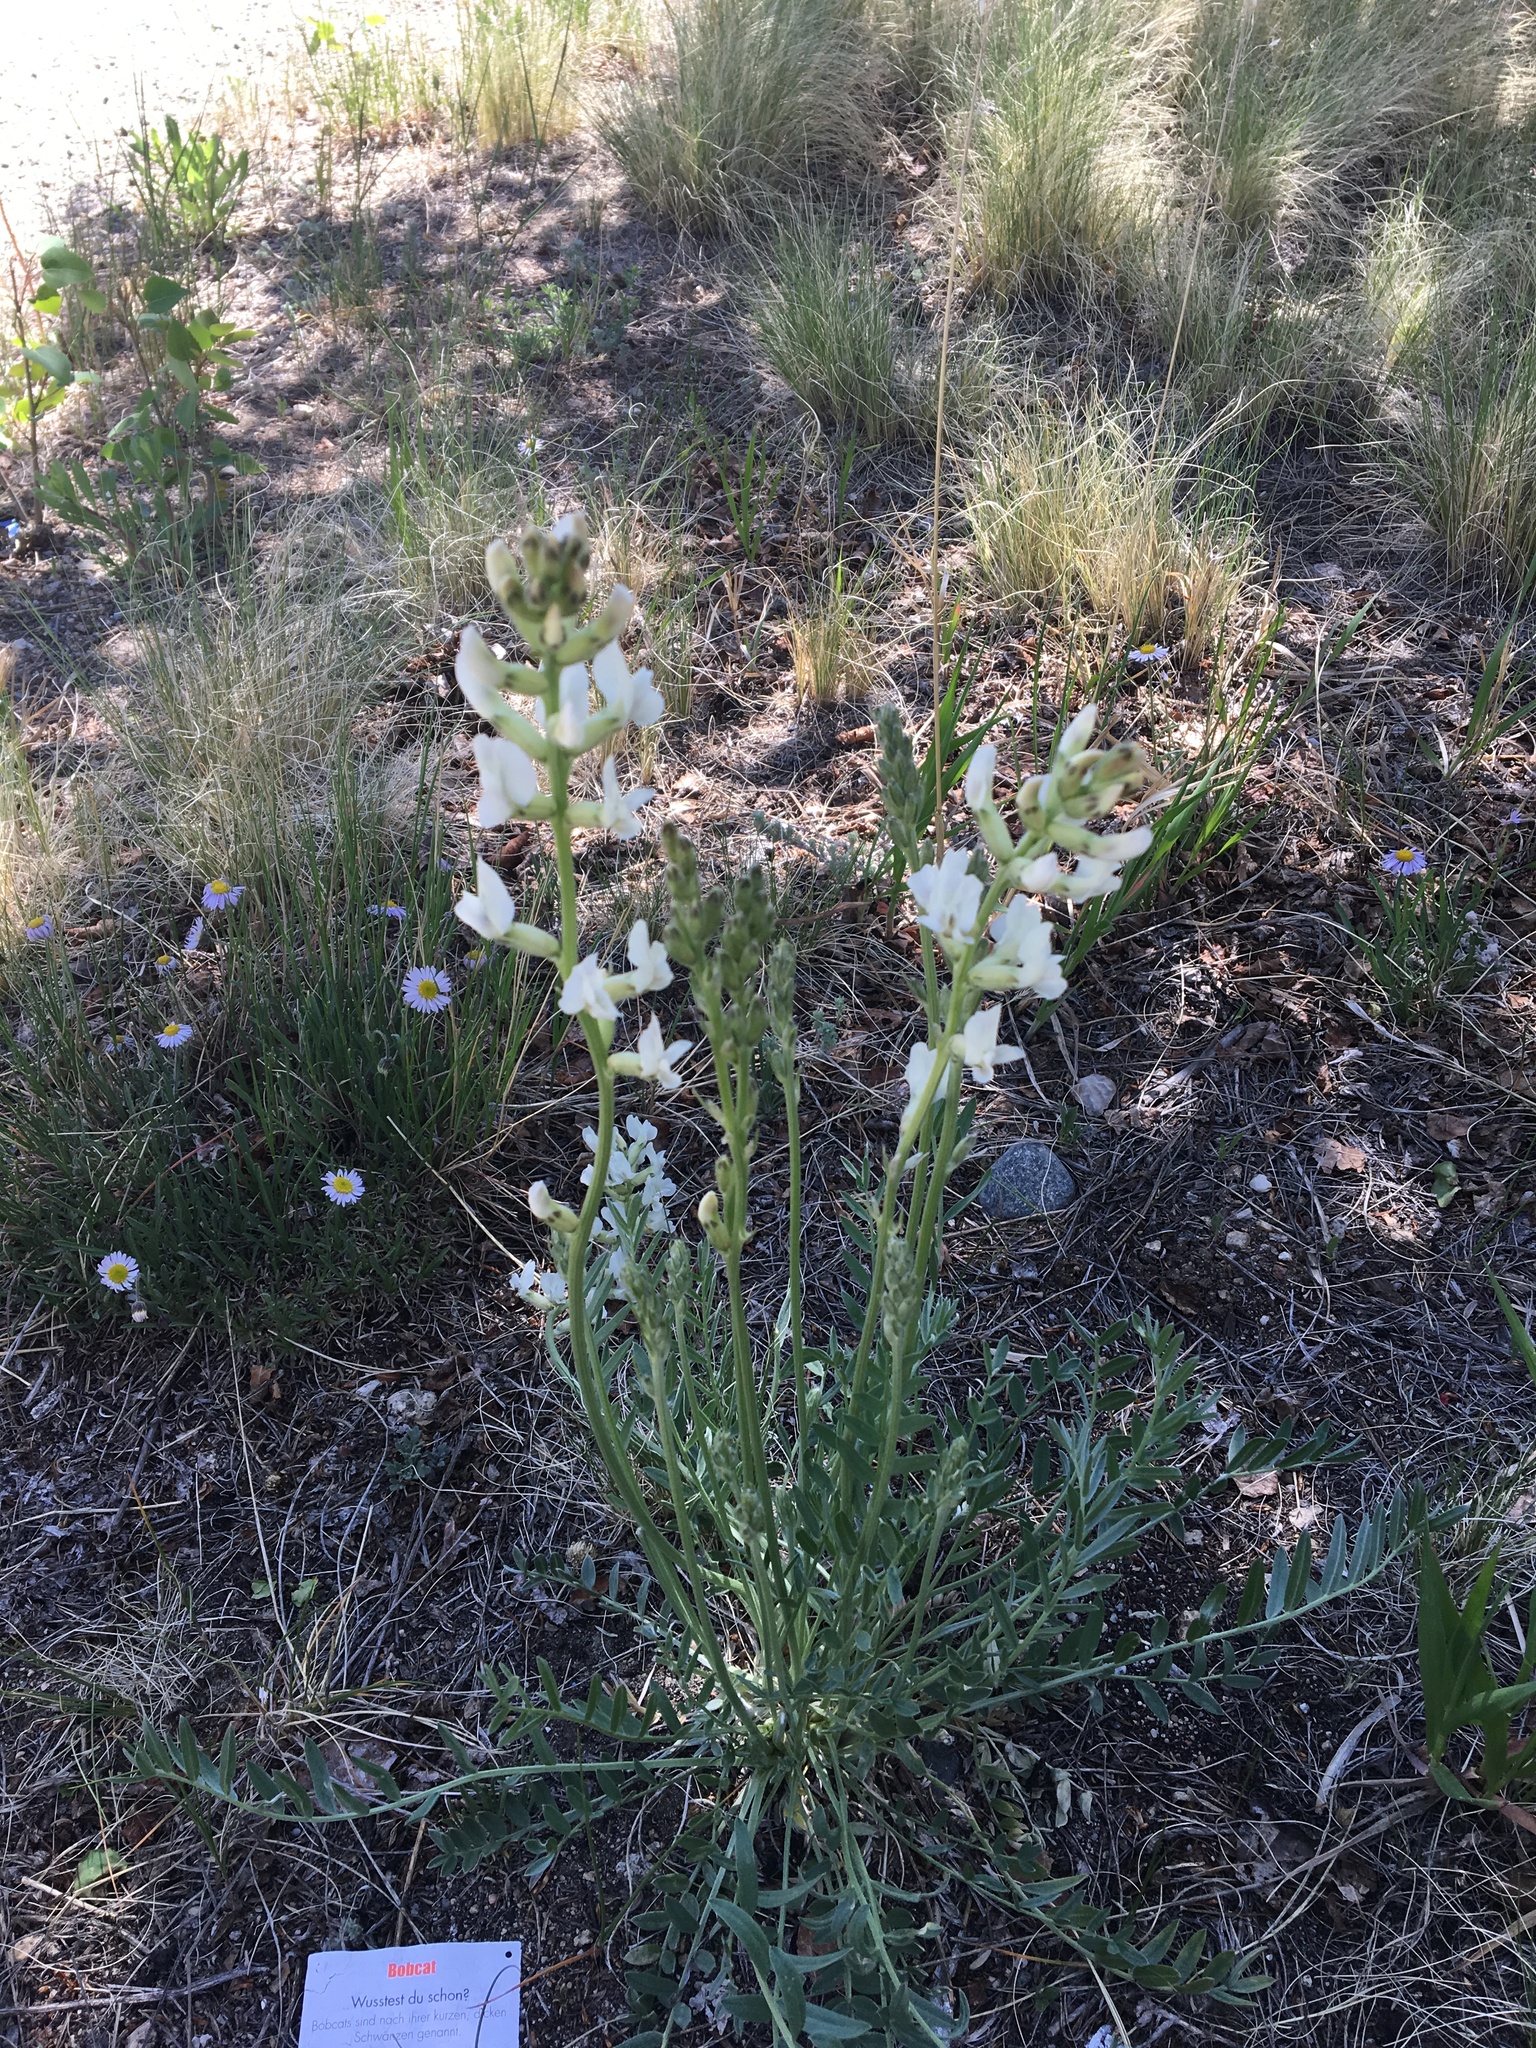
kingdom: Plantae
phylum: Tracheophyta
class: Magnoliopsida
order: Fabales
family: Fabaceae
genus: Oxytropis
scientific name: Oxytropis sericea
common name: Silky locoweed
